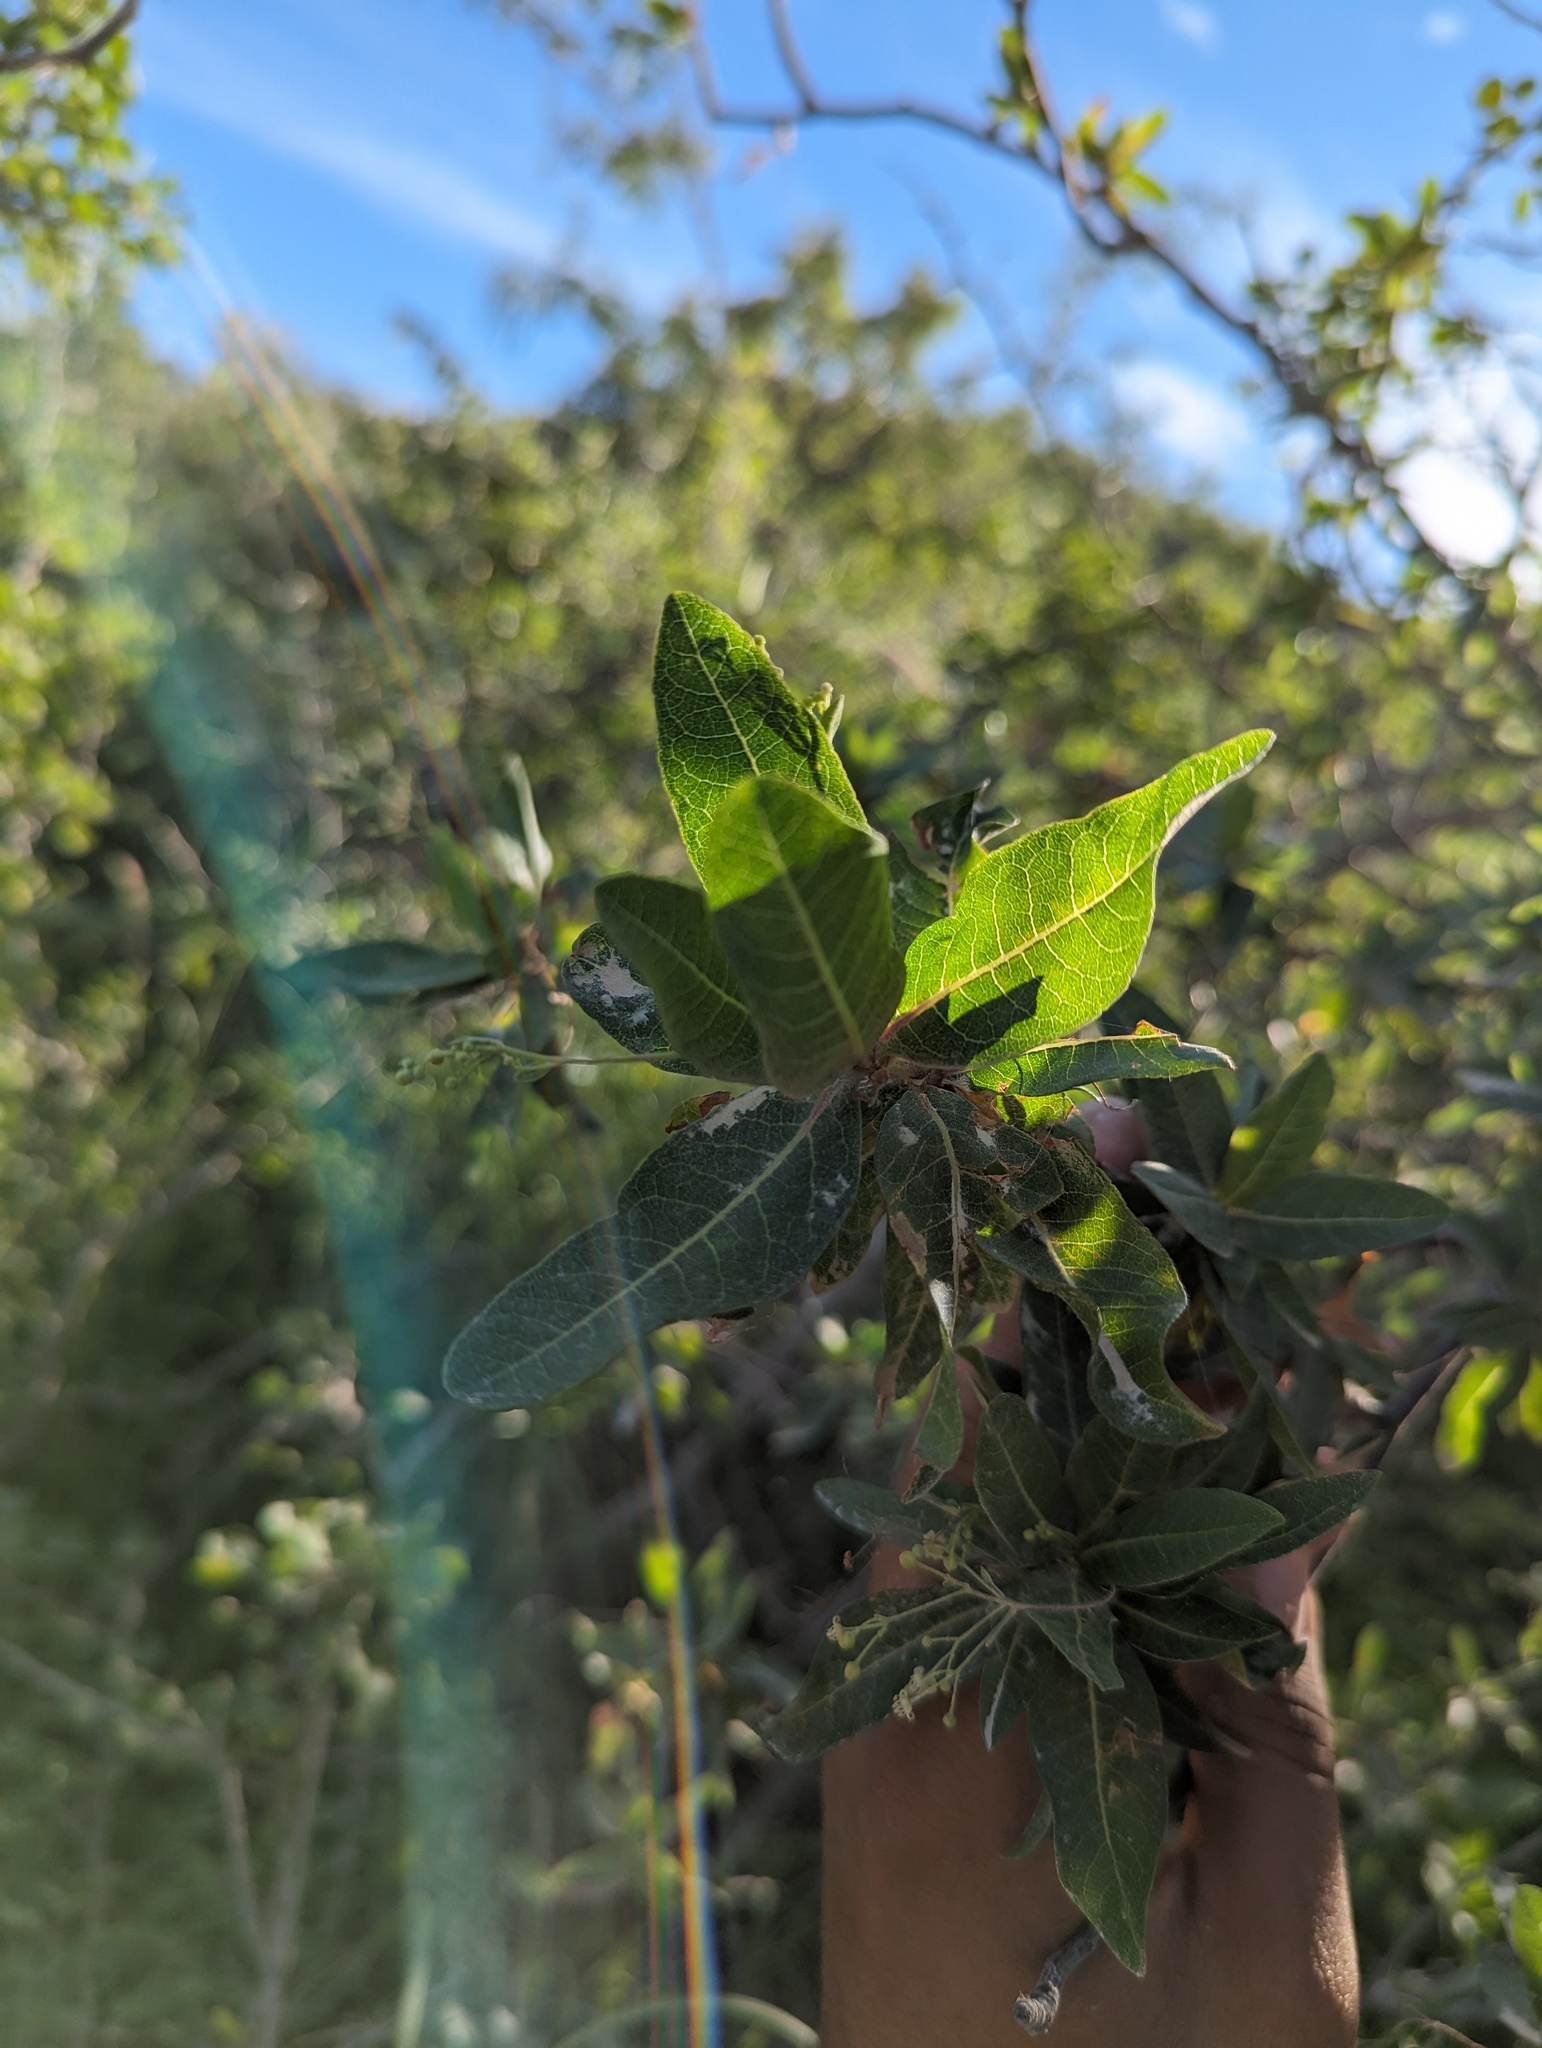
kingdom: Plantae
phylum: Tracheophyta
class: Magnoliopsida
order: Sapindales
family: Burseraceae
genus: Bursera
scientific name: Bursera cerasiifolia
